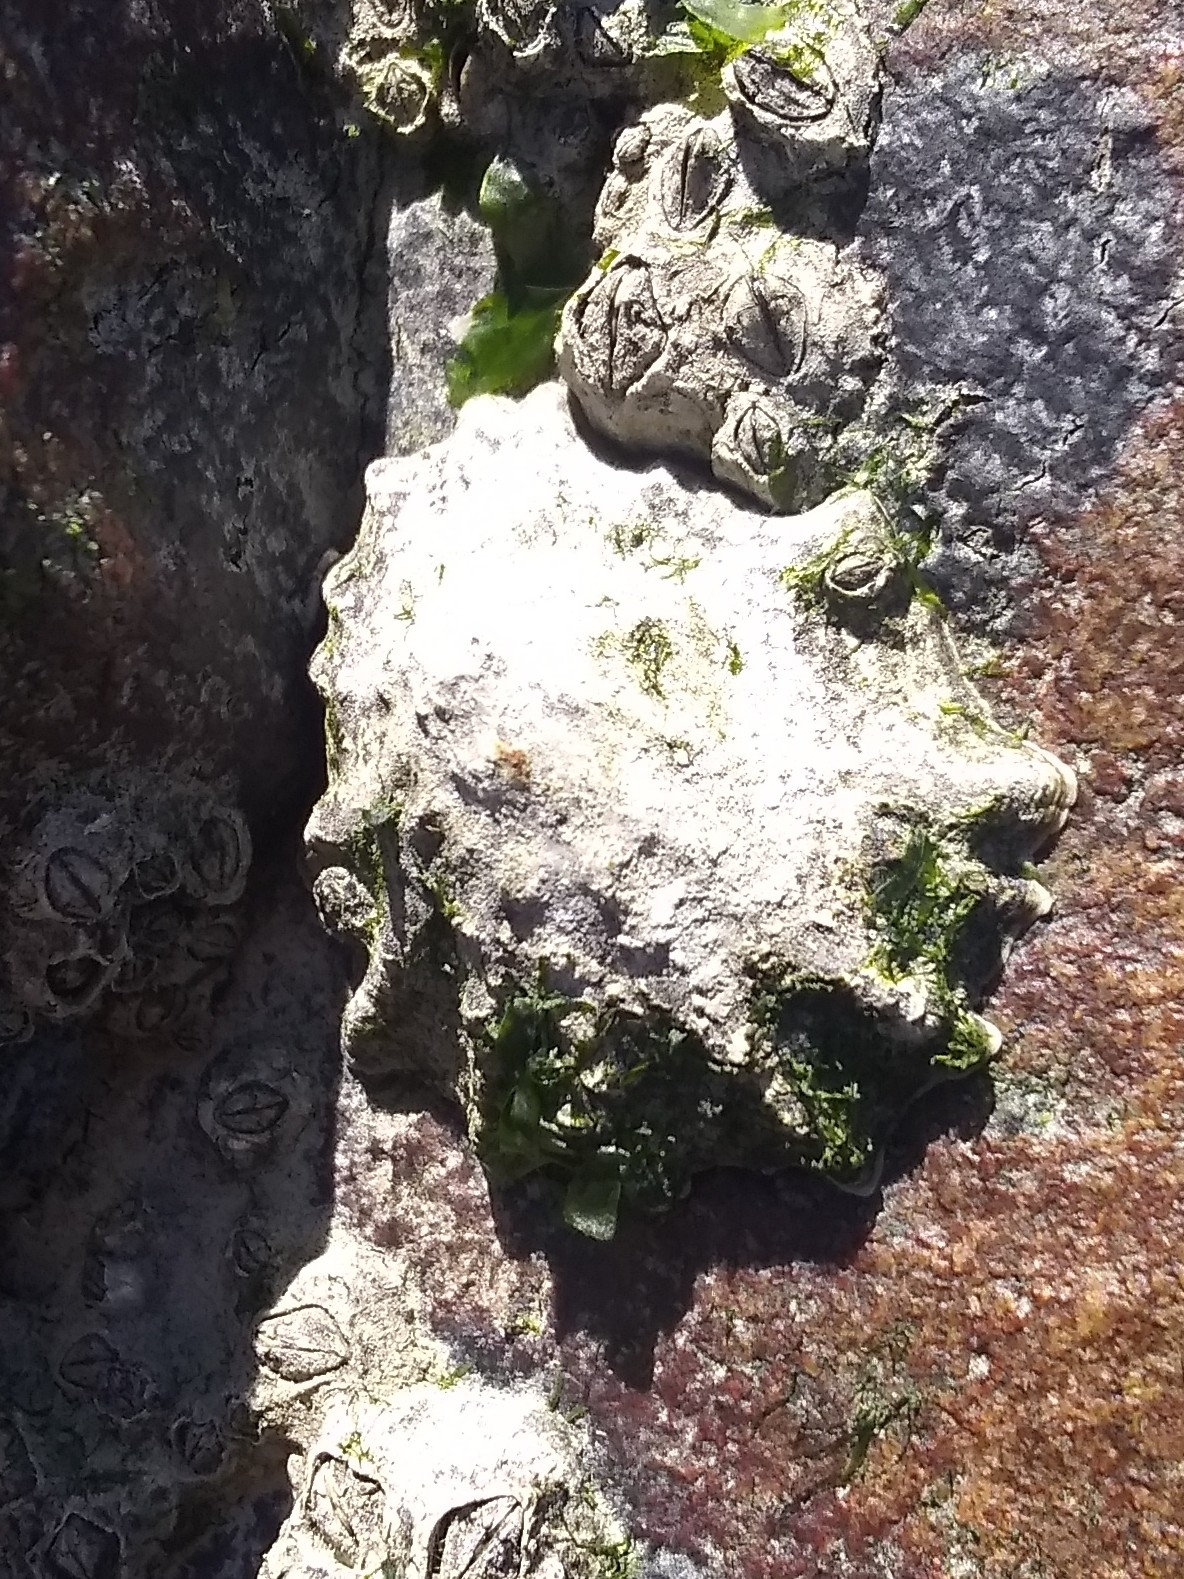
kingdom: Animalia
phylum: Mollusca
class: Gastropoda
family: Lottiidae
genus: Lottia
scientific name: Lottia scabra
